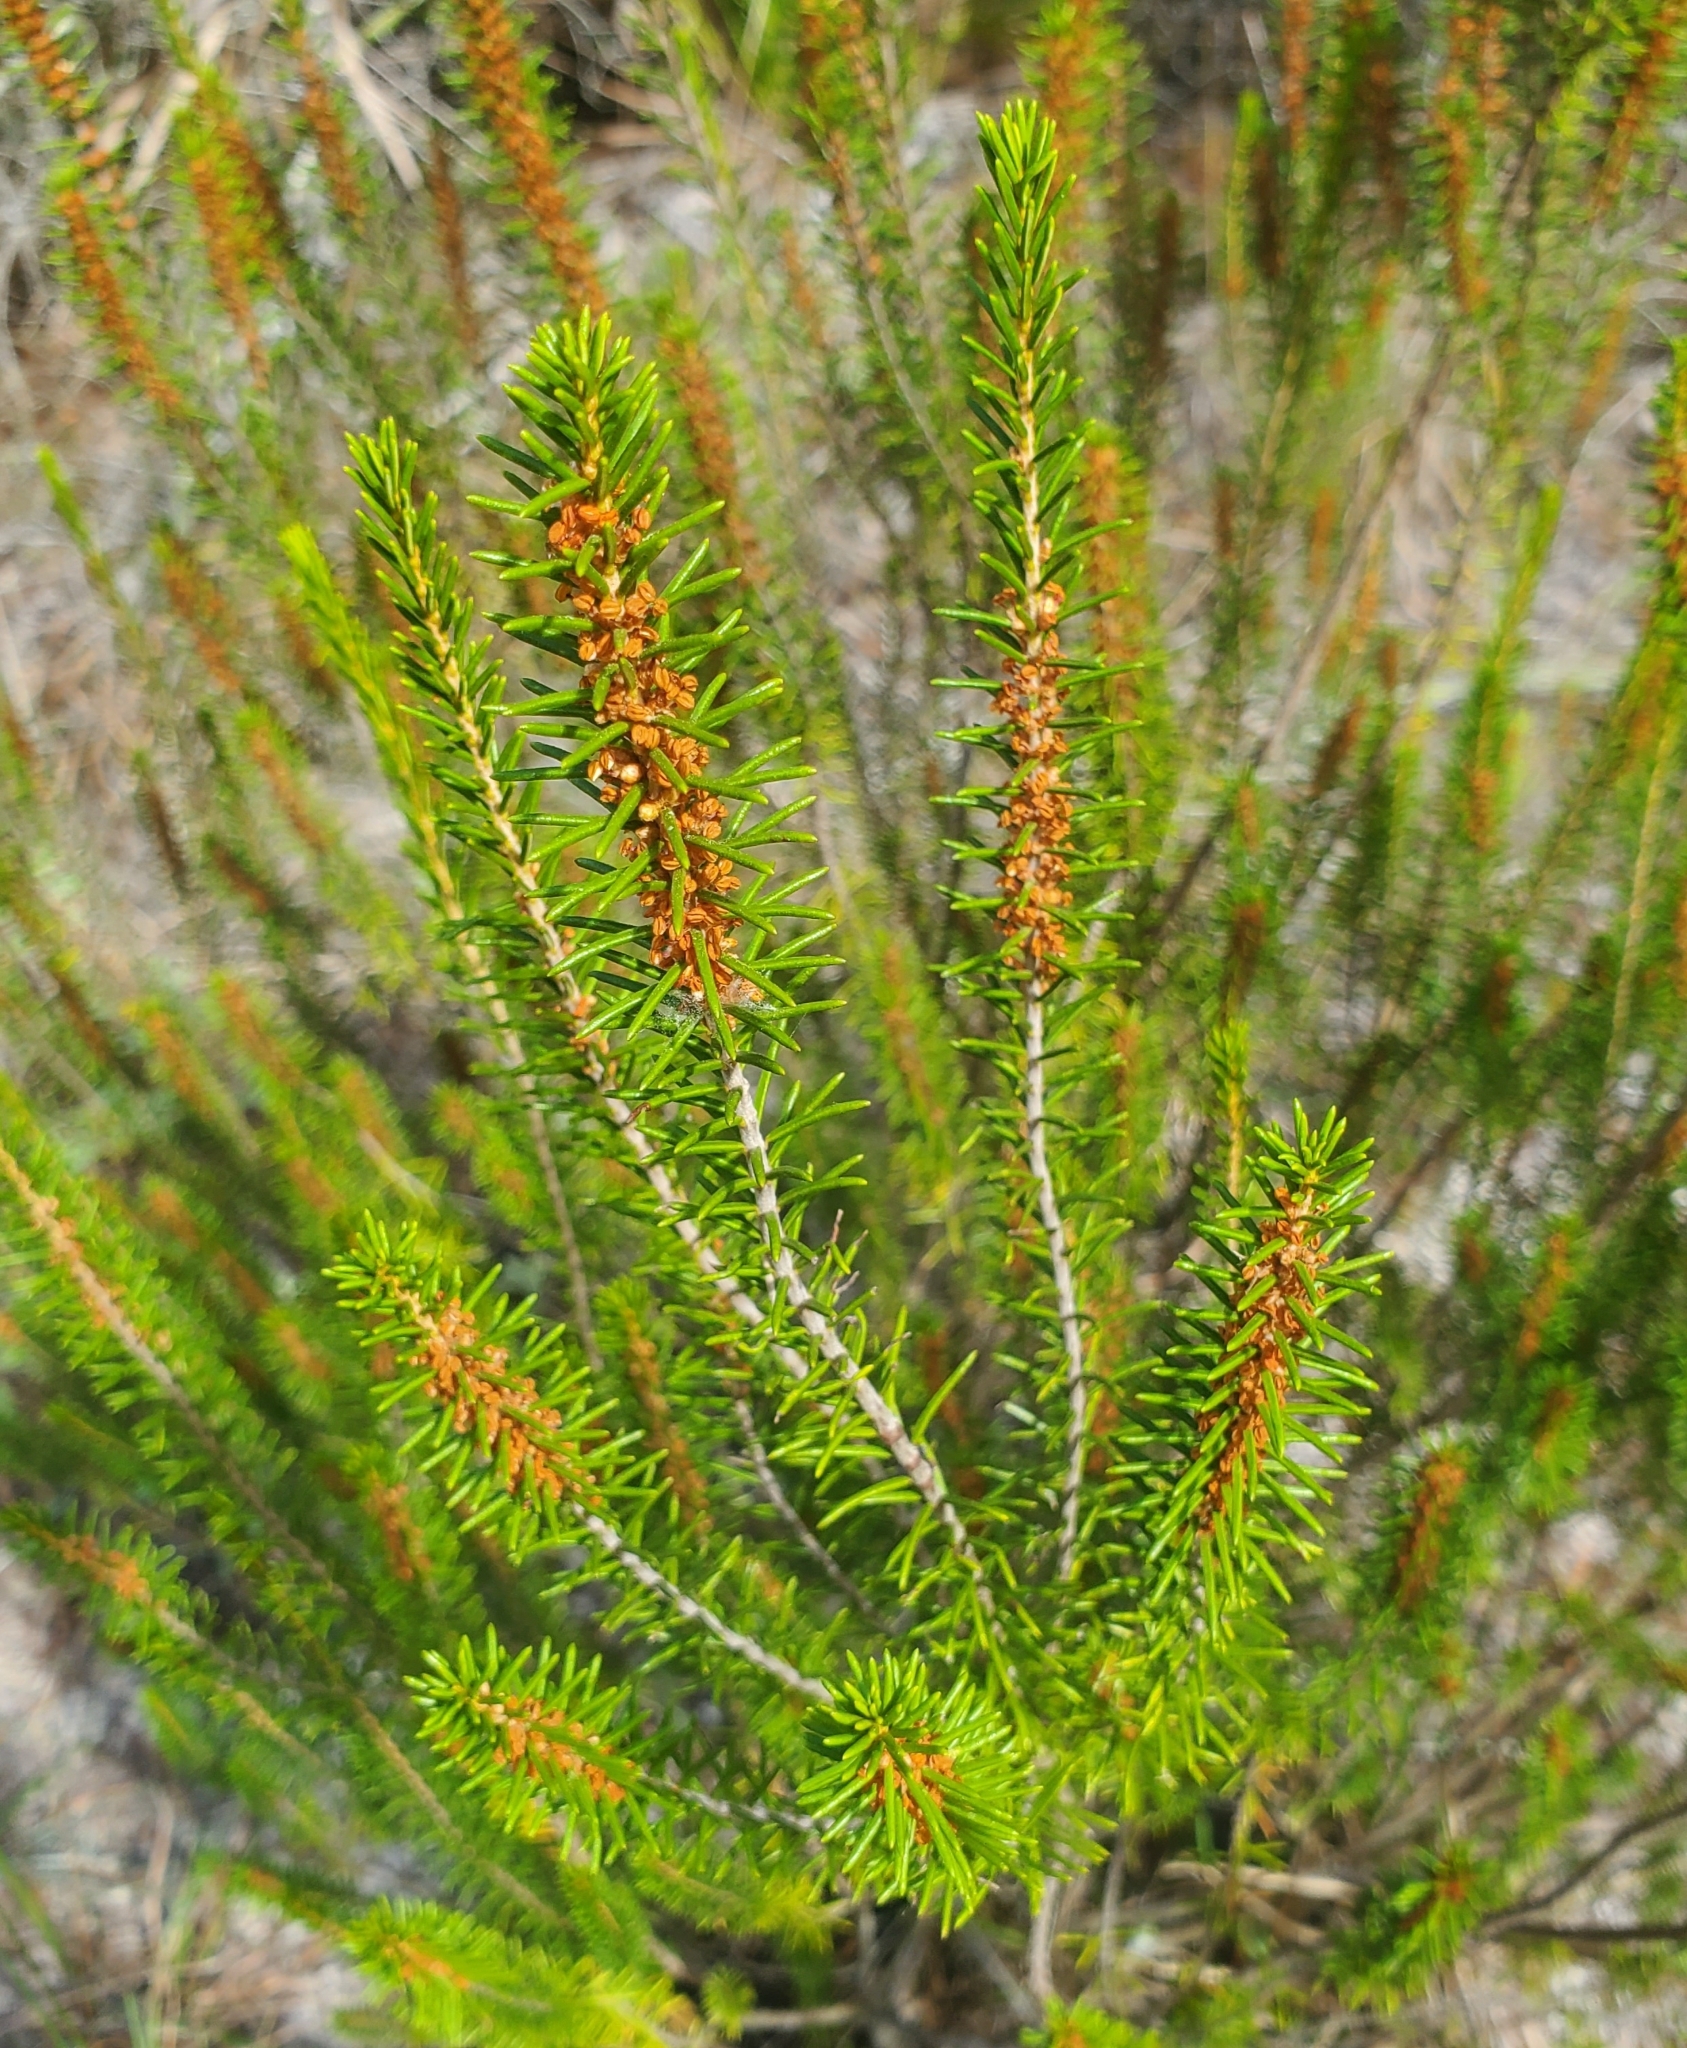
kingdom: Plantae
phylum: Tracheophyta
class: Magnoliopsida
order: Ericales
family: Ericaceae
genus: Ceratiola
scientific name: Ceratiola ericoides
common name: Sandhill-rosemary
